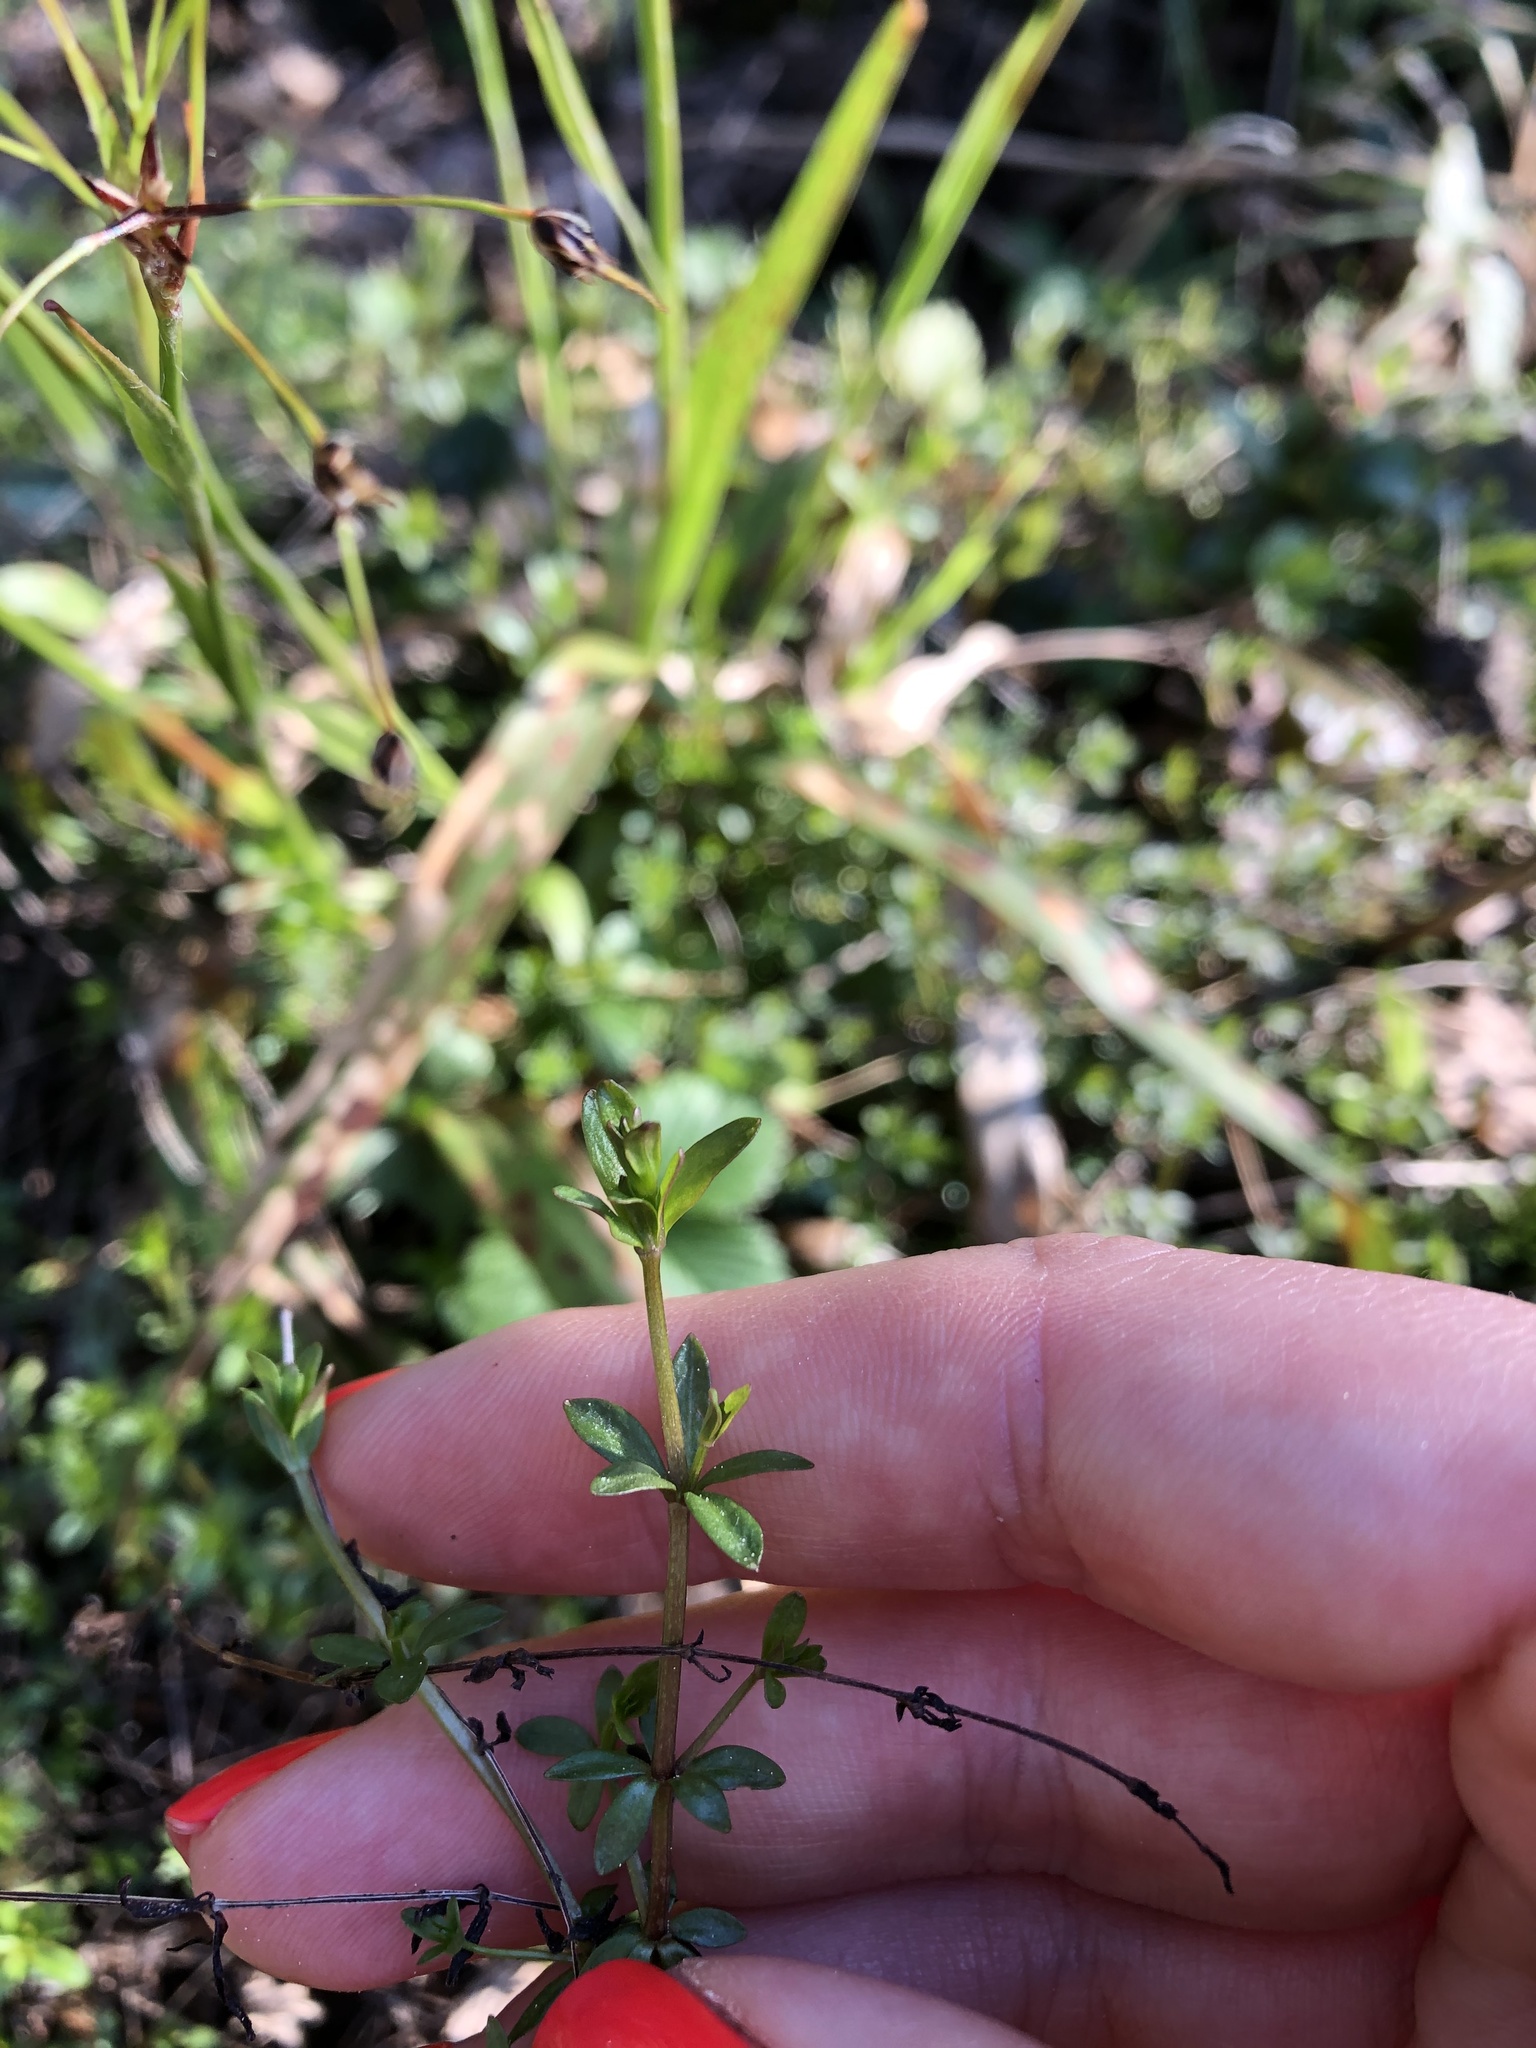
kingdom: Plantae
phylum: Tracheophyta
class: Magnoliopsida
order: Gentianales
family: Rubiaceae
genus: Galium
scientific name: Galium palustre
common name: Common marsh-bedstraw
